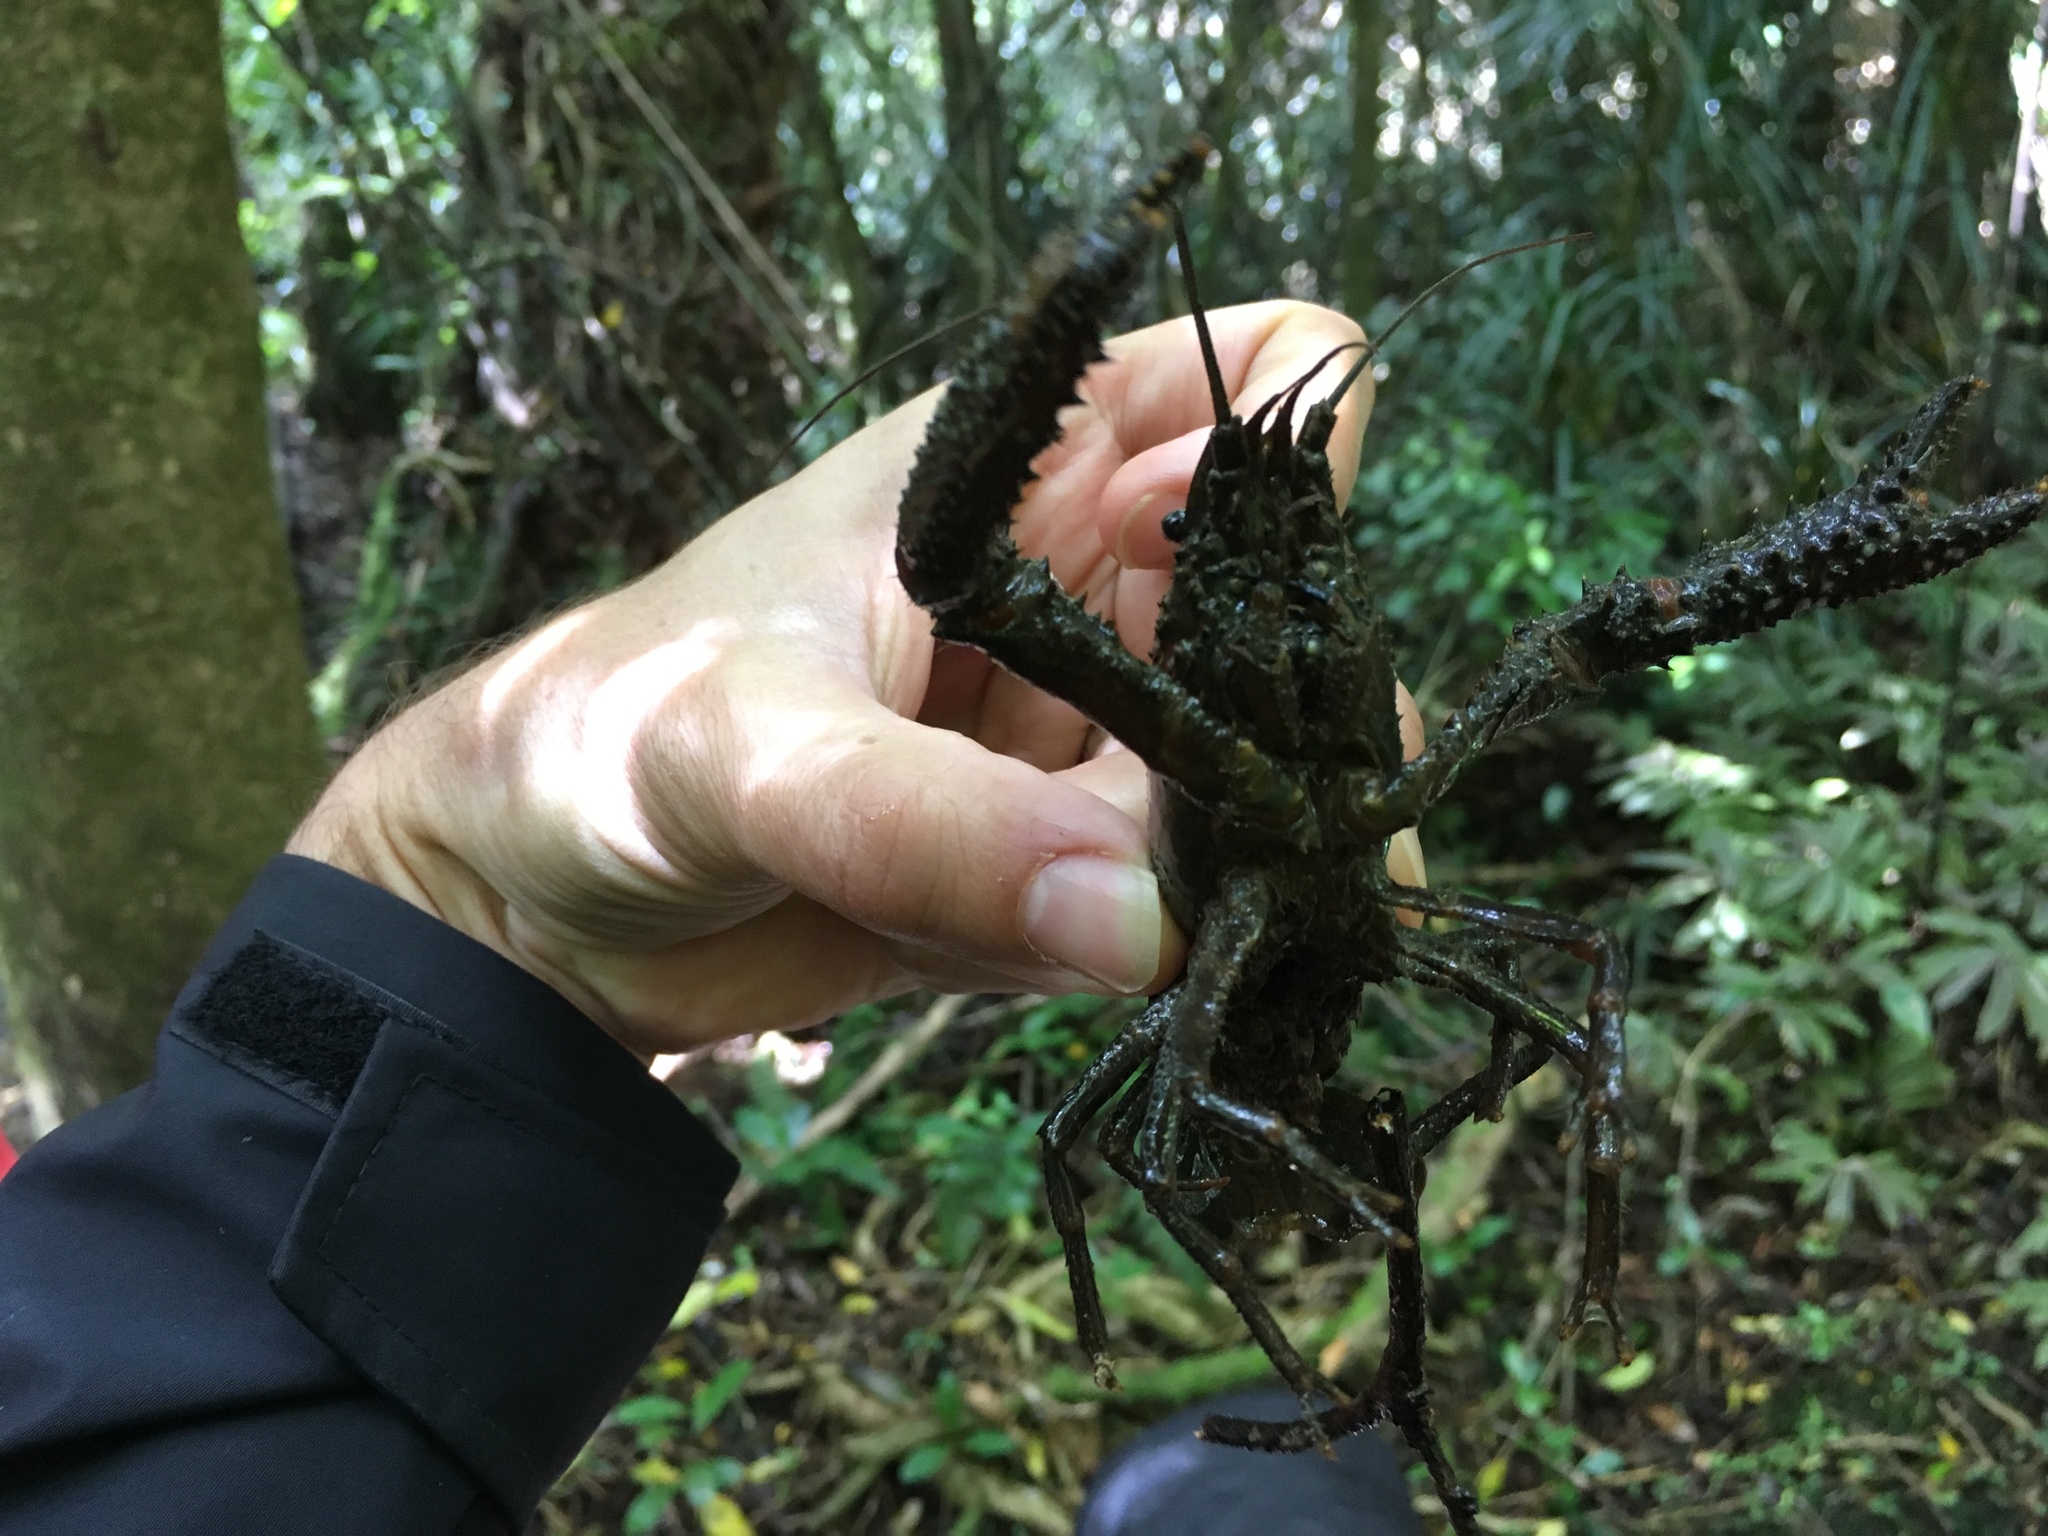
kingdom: Animalia
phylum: Arthropoda
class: Malacostraca
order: Decapoda
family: Parastacidae
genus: Paranephrops
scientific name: Paranephrops planifrons
